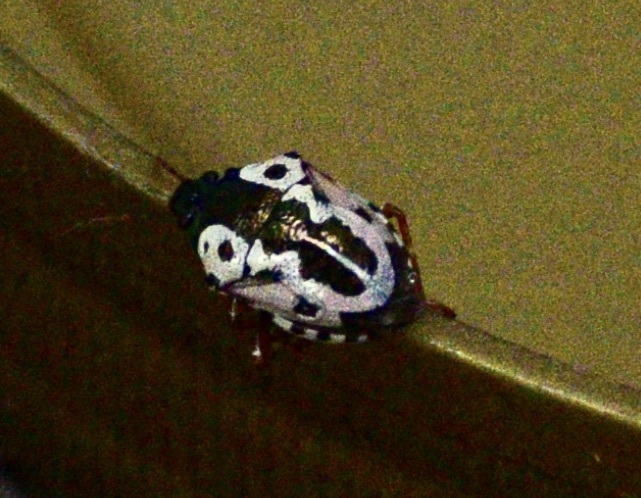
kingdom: Animalia
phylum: Arthropoda
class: Insecta
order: Hemiptera
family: Pentatomidae
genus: Stiretrus
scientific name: Stiretrus anchorago
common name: Anchor stink bug
